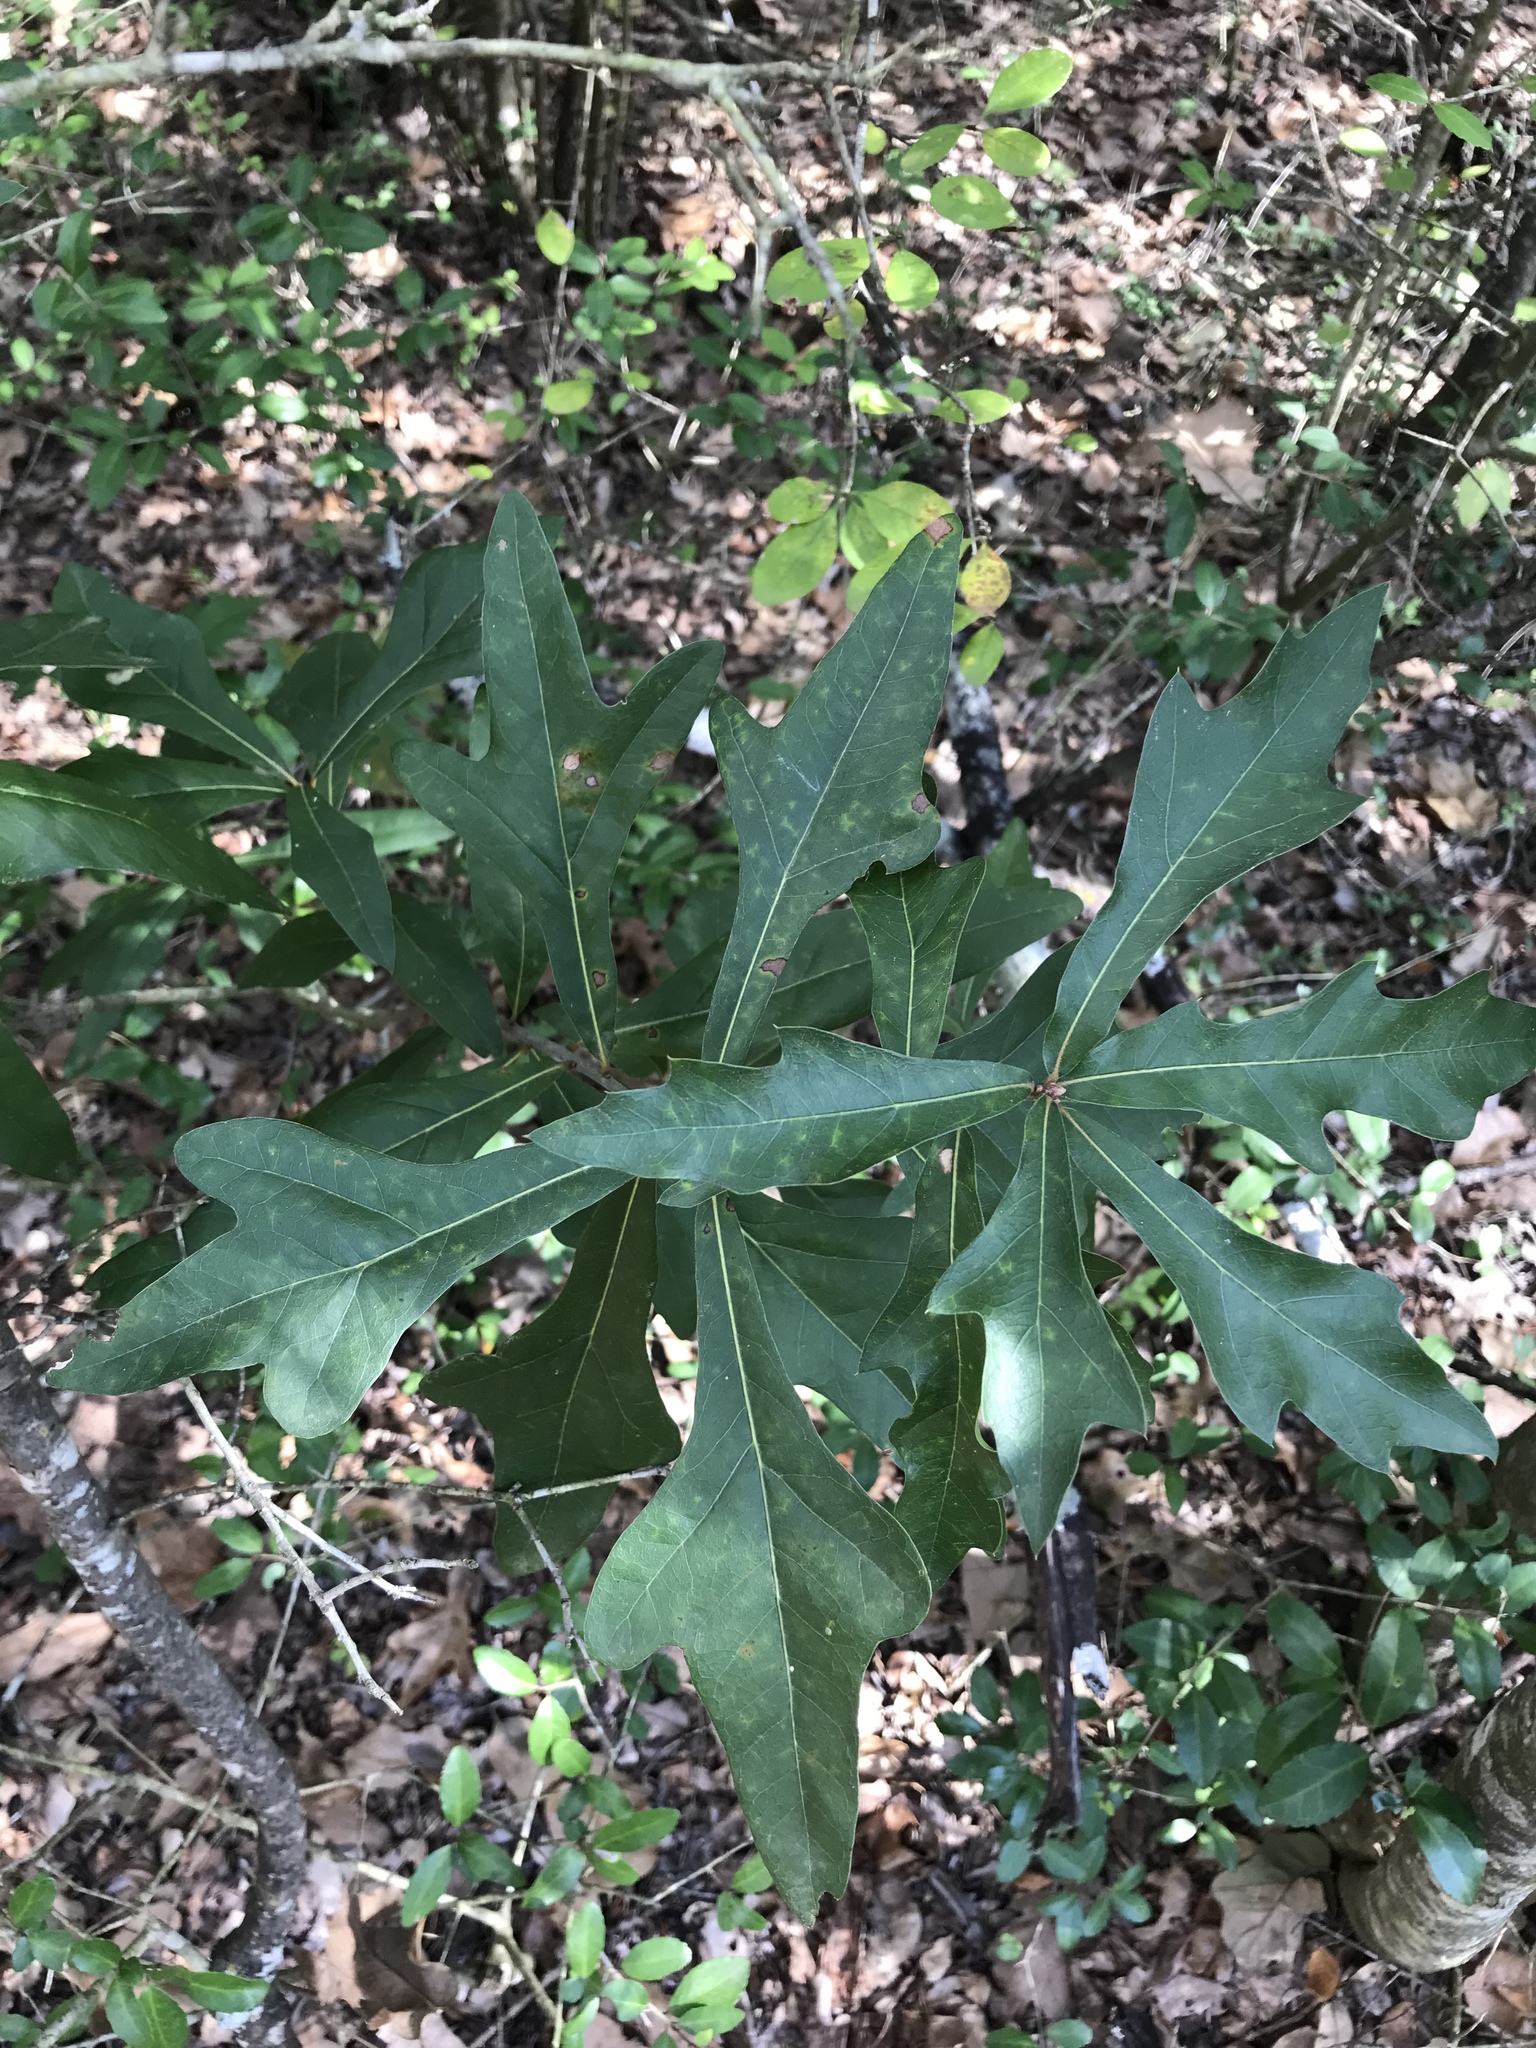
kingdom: Plantae
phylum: Tracheophyta
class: Magnoliopsida
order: Fagales
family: Fagaceae
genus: Quercus
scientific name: Quercus nigra
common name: Water oak
